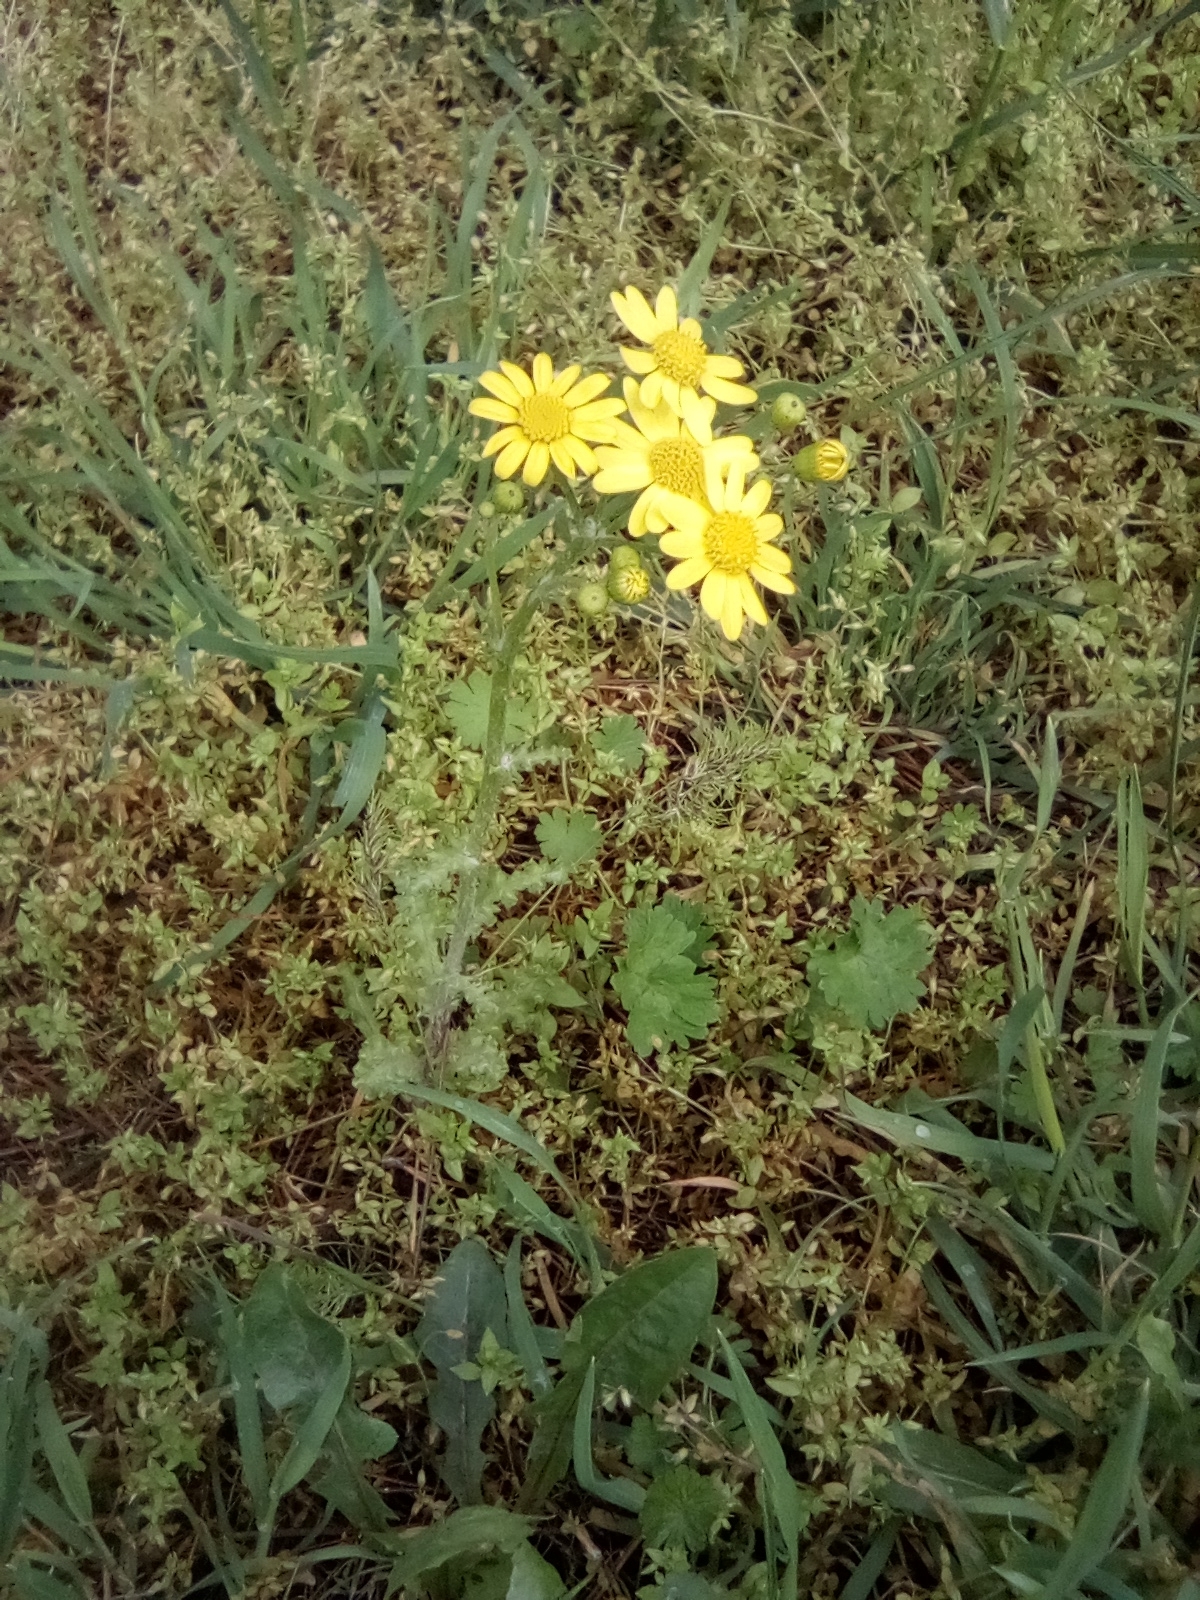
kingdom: Plantae
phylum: Tracheophyta
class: Magnoliopsida
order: Asterales
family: Asteraceae
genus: Senecio
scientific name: Senecio vernalis
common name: Eastern groundsel
